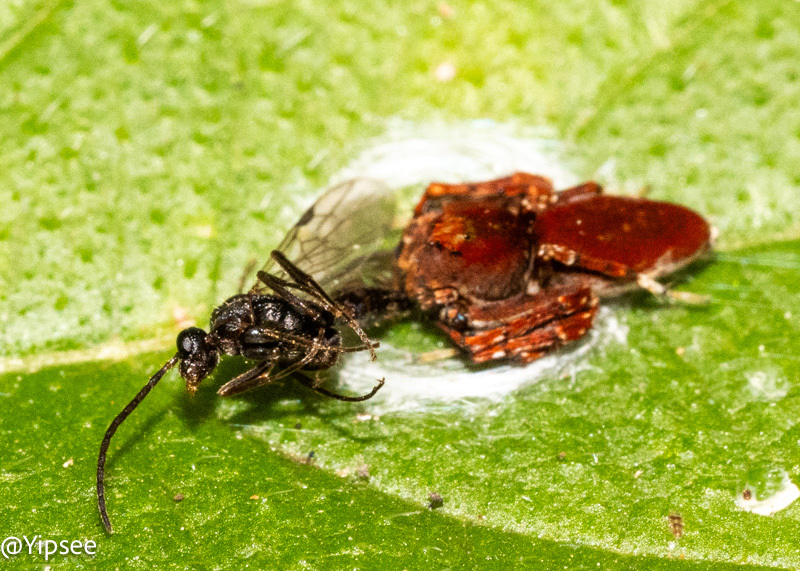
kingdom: Animalia
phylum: Arthropoda
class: Arachnida
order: Araneae
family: Oxyopidae
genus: Hamadruas
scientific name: Hamadruas hieroglyphica
